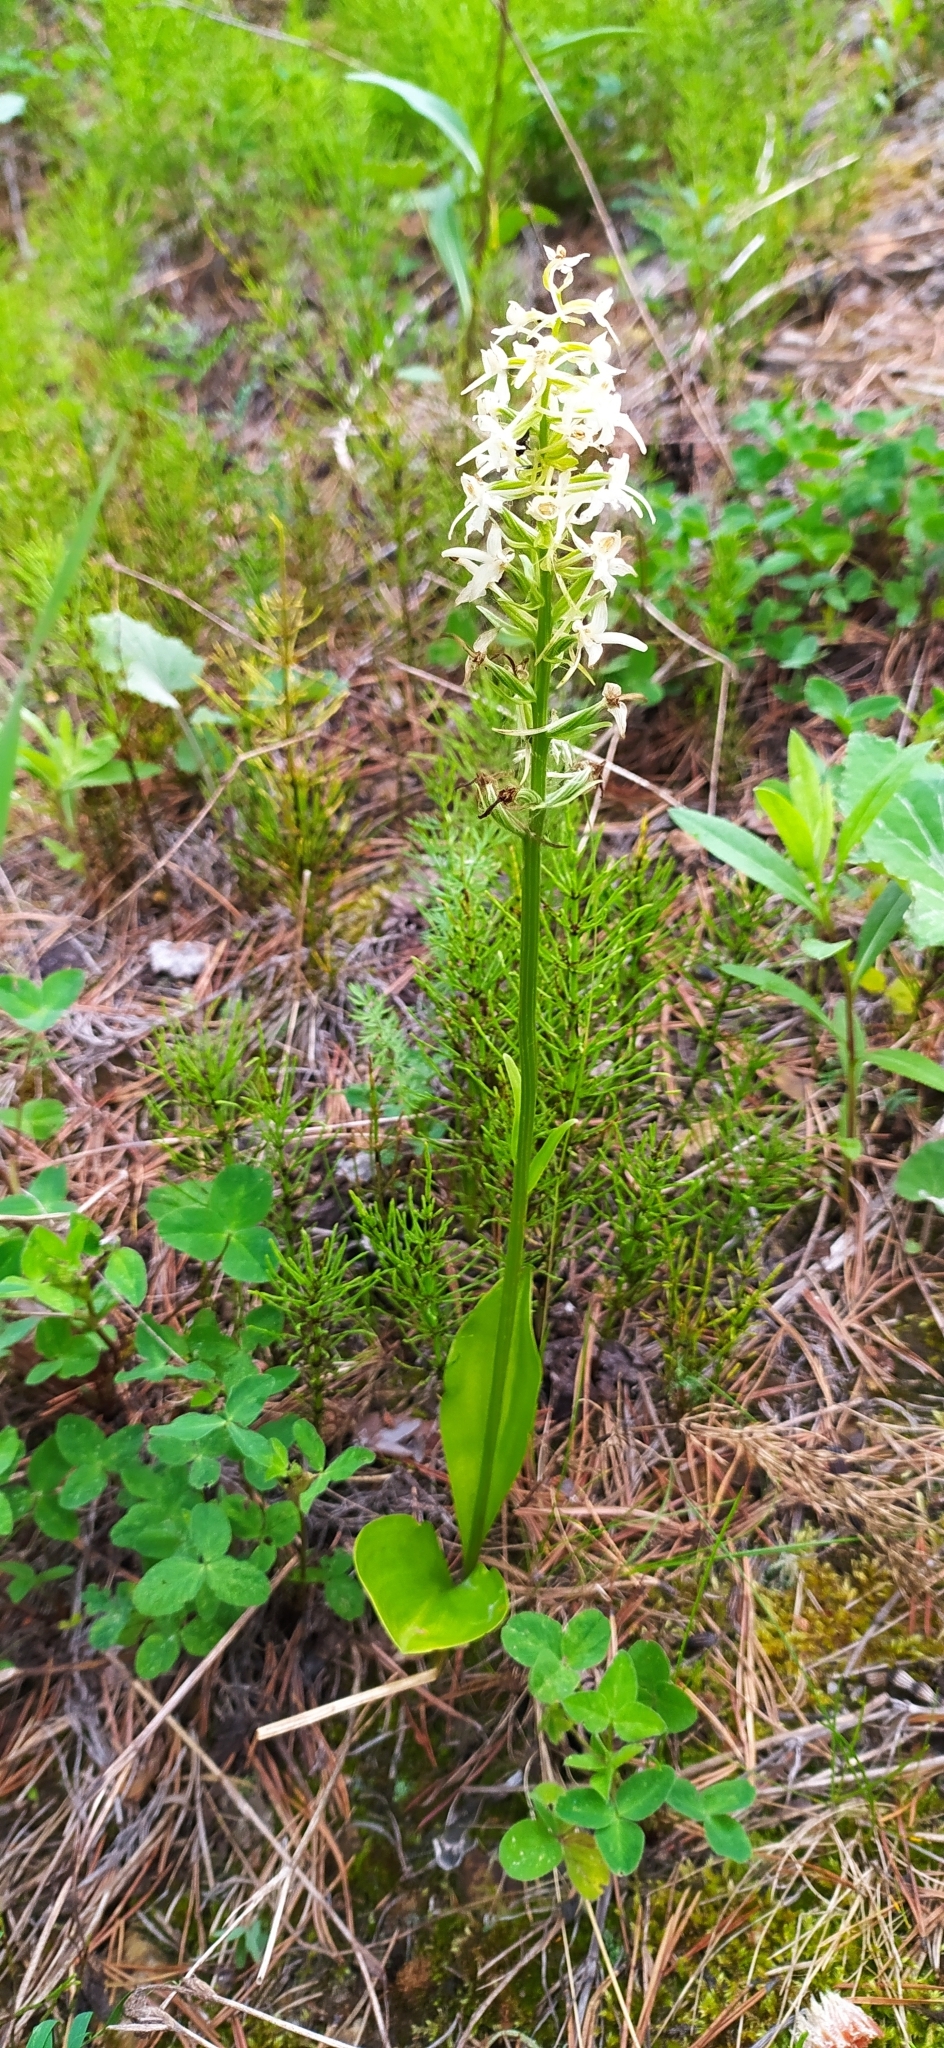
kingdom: Plantae
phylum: Tracheophyta
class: Liliopsida
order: Asparagales
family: Orchidaceae
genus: Platanthera
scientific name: Platanthera bifolia
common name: Lesser butterfly-orchid
